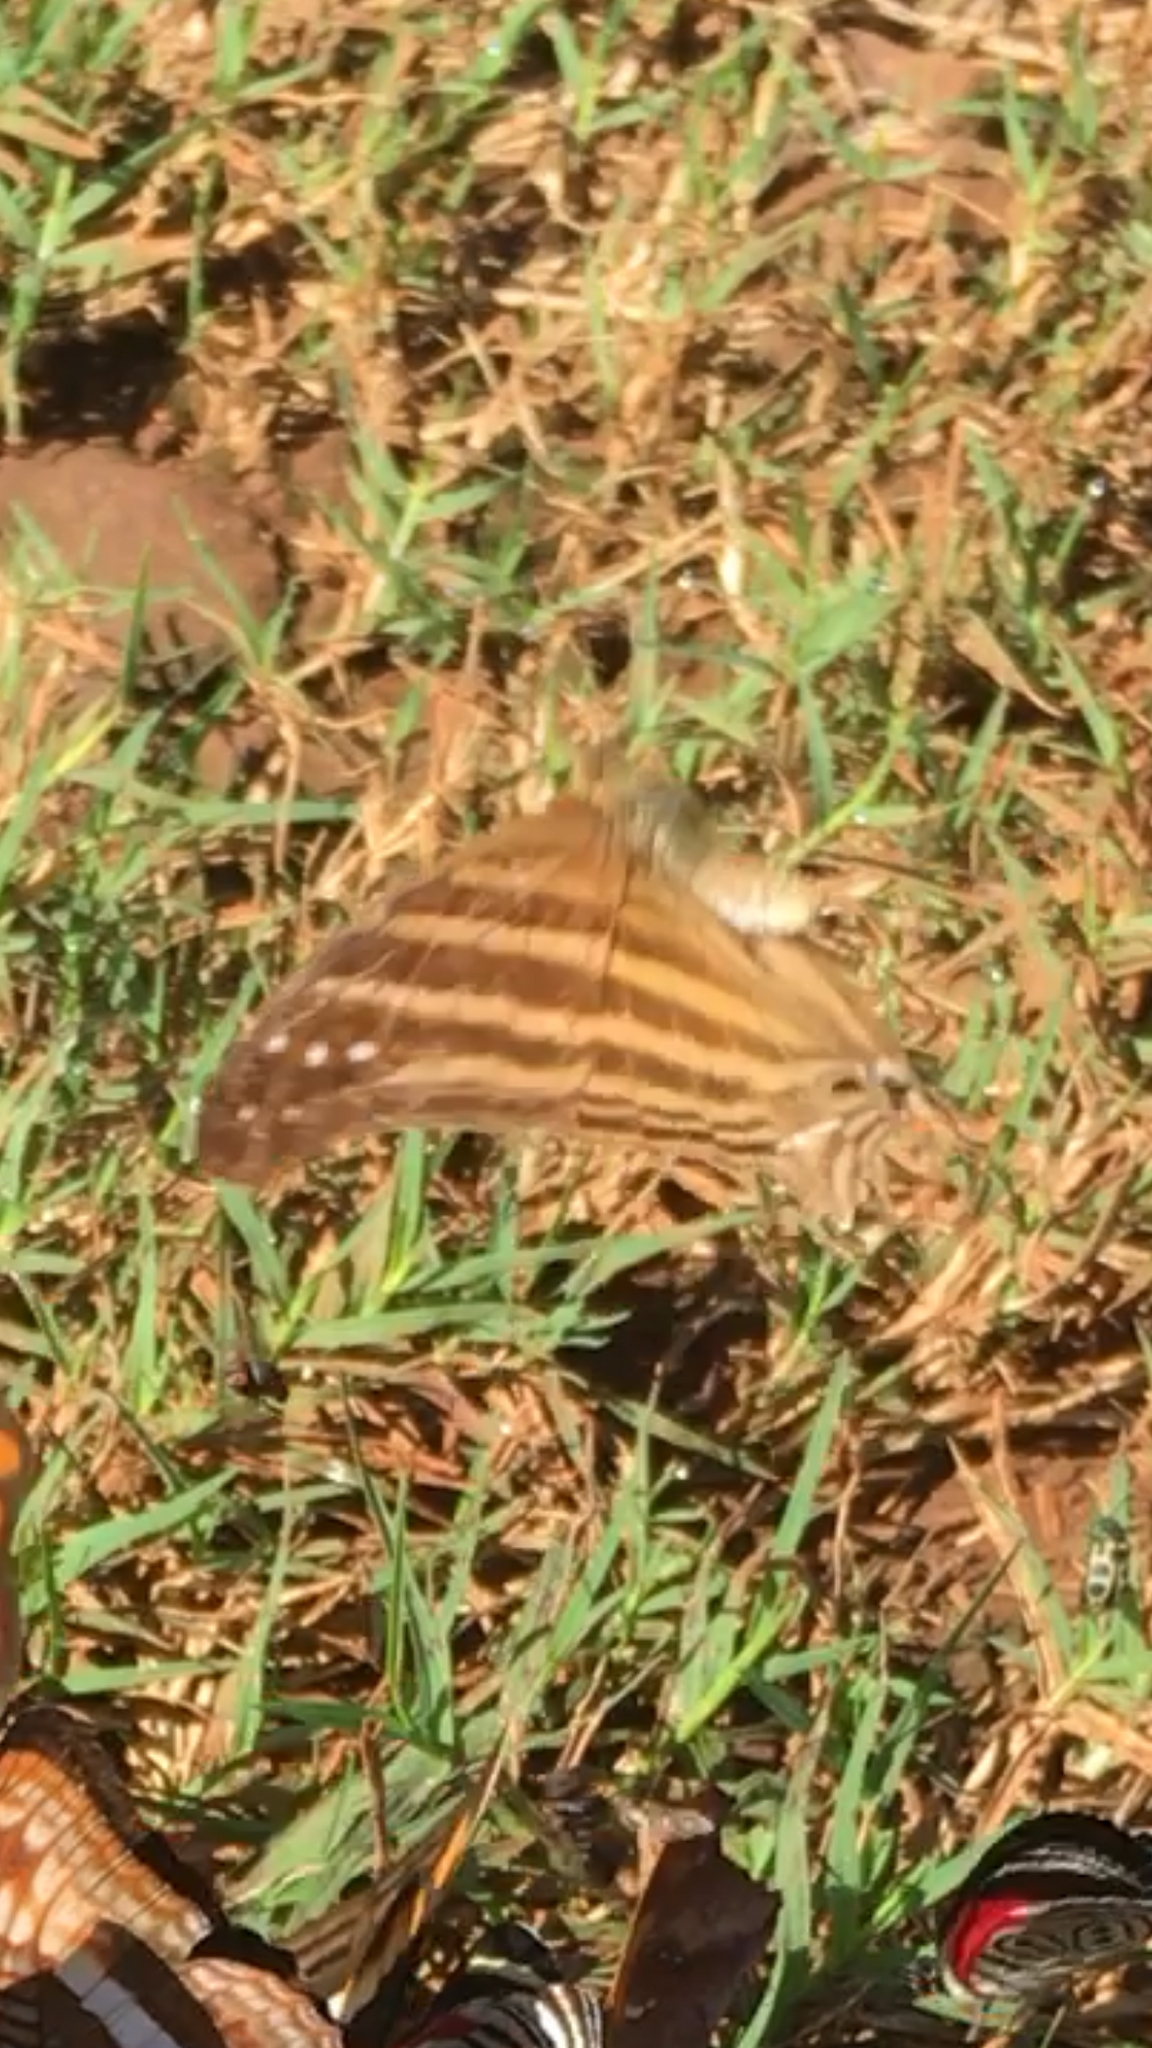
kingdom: Animalia
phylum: Arthropoda
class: Insecta
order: Lepidoptera
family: Nymphalidae
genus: Marpesia
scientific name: Marpesia chiron
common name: Many-banded daggerwing
